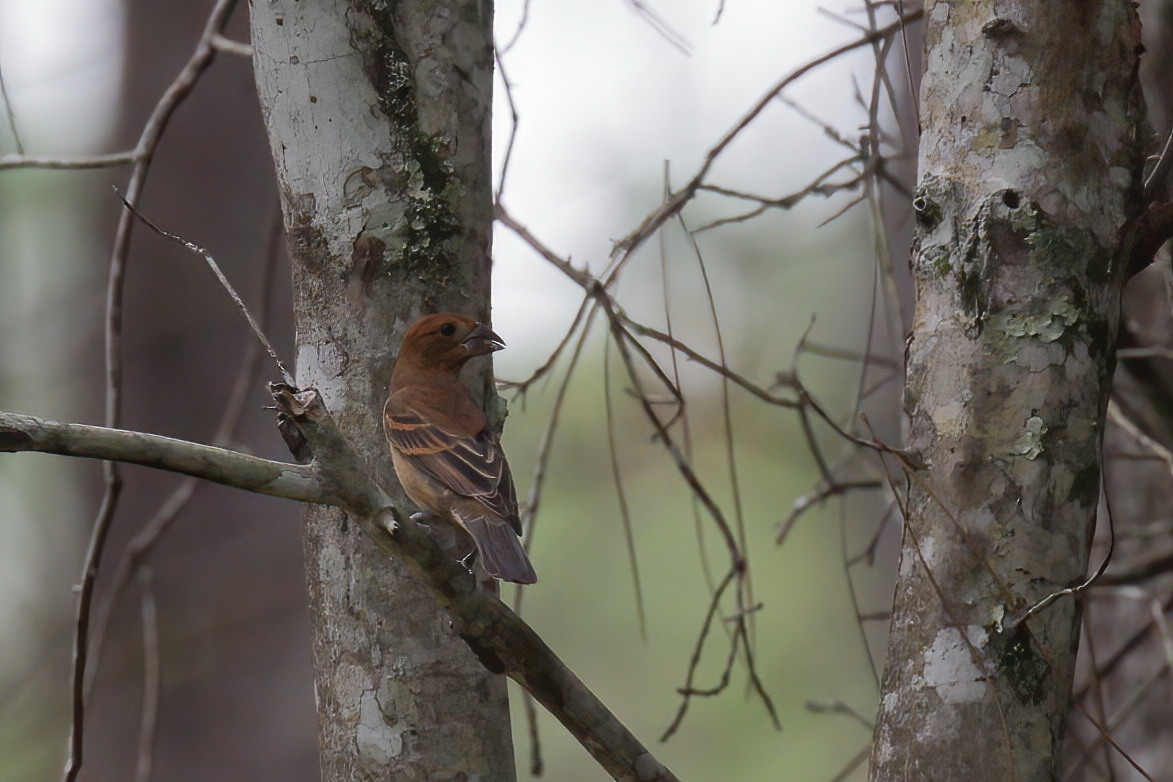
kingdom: Animalia
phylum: Chordata
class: Aves
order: Passeriformes
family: Cardinalidae
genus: Passerina
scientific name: Passerina caerulea
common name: Blue grosbeak
